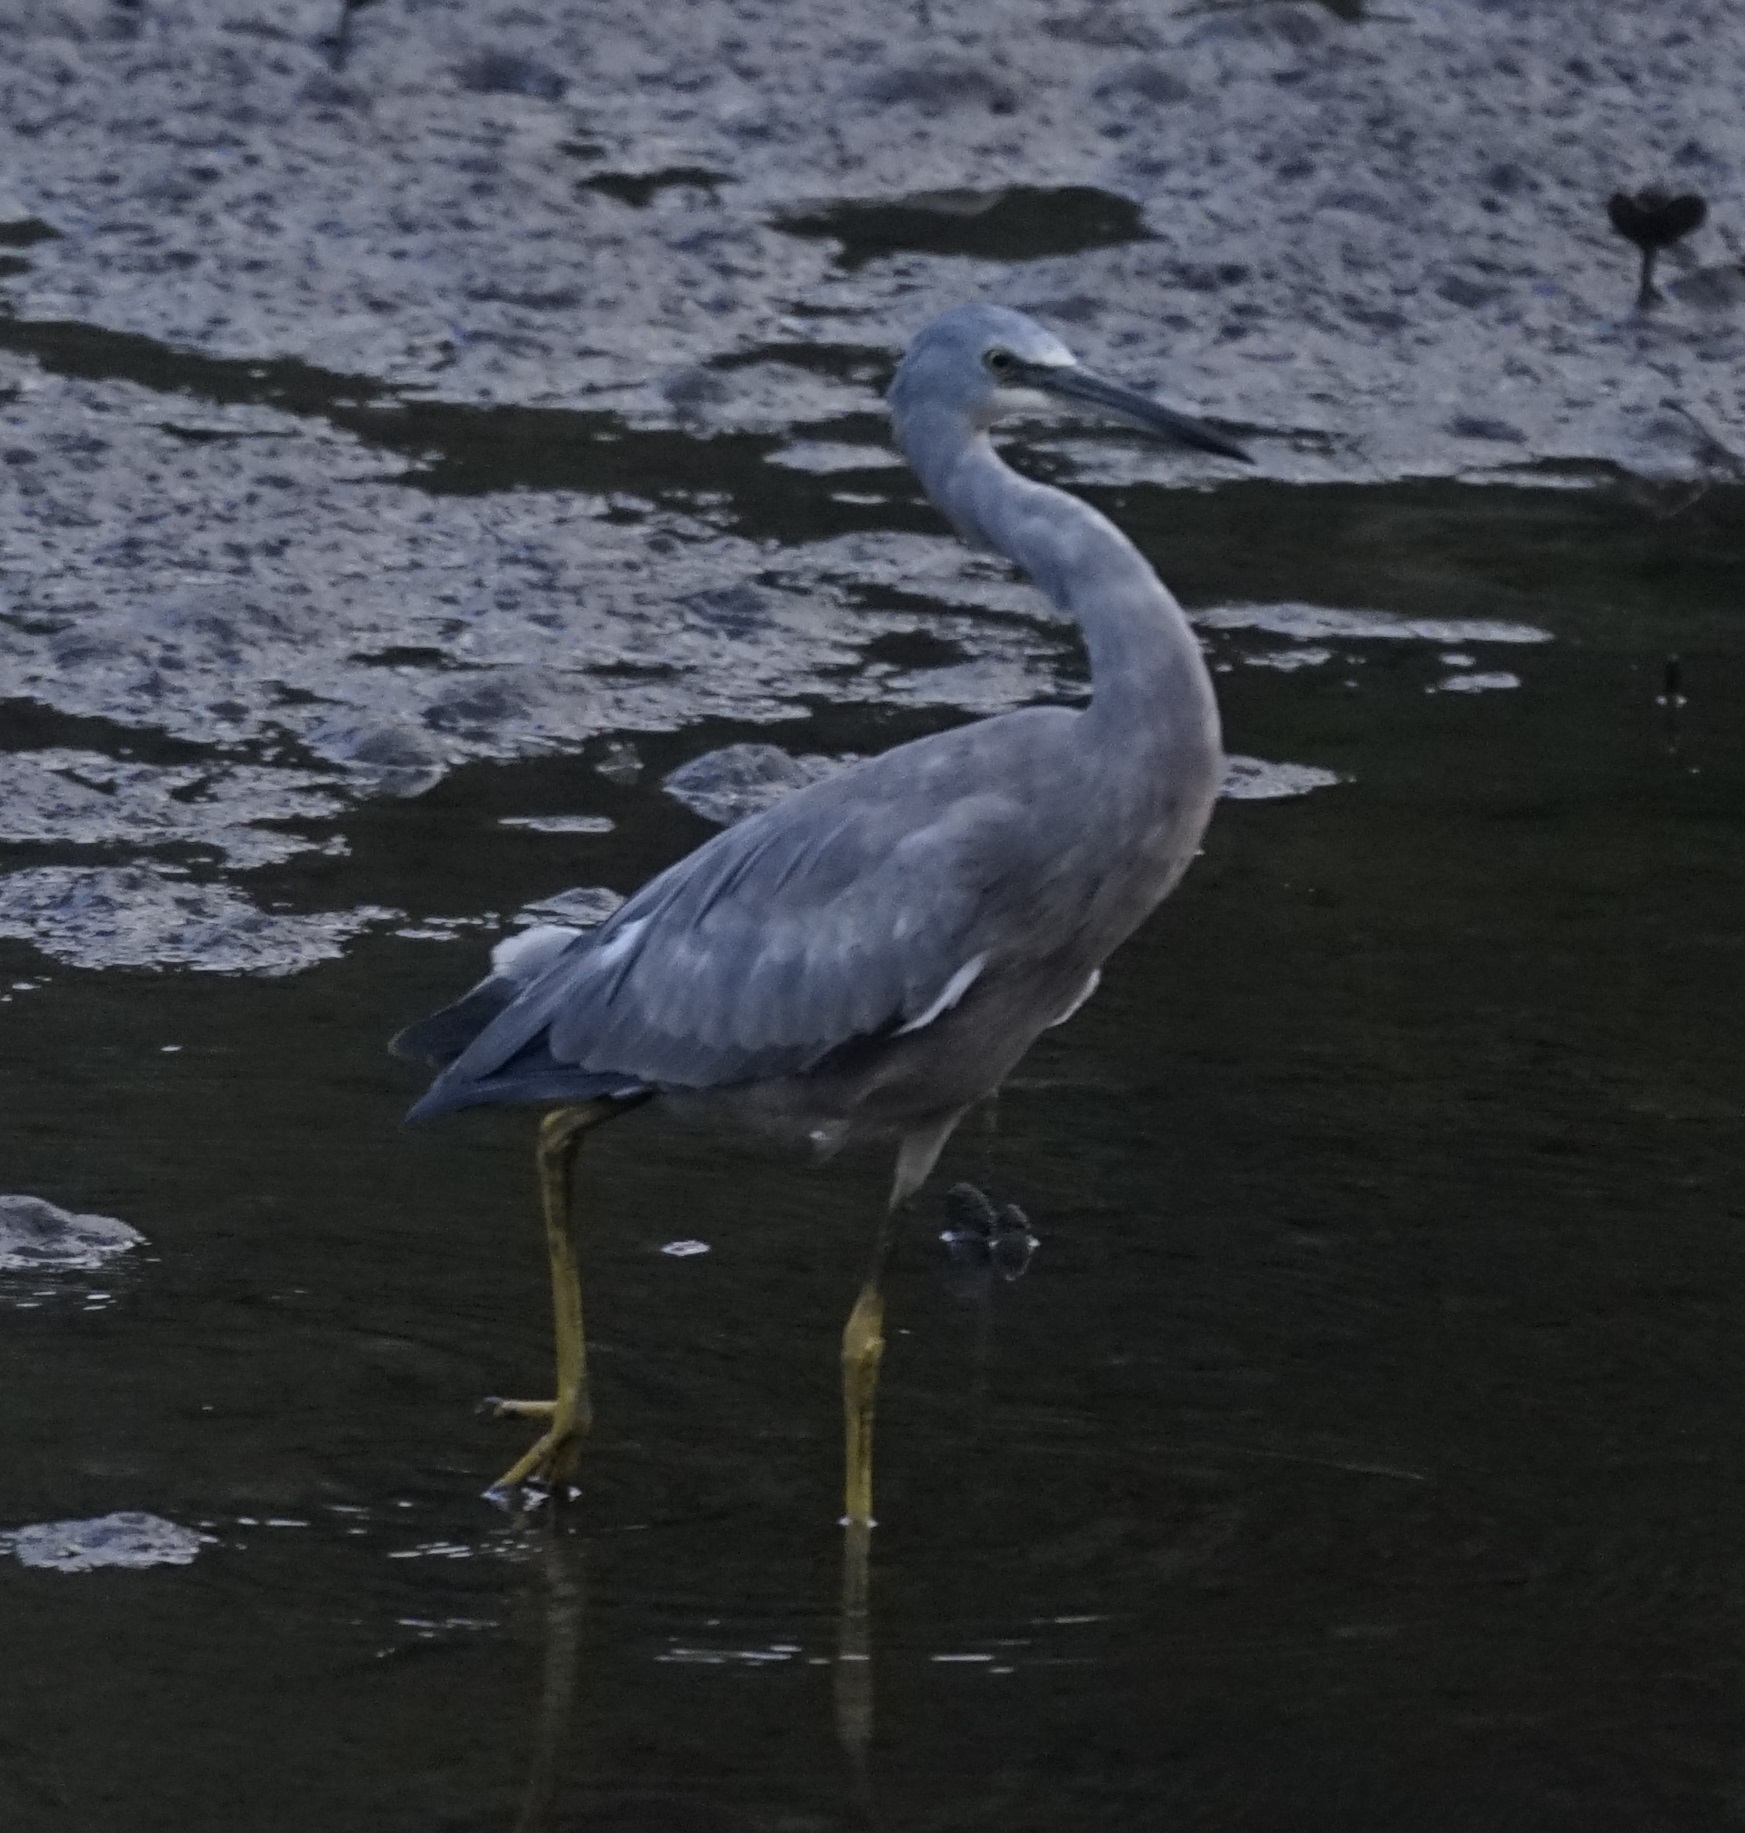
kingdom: Animalia
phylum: Chordata
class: Aves
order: Pelecaniformes
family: Ardeidae
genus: Egretta
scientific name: Egretta novaehollandiae
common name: White-faced heron
